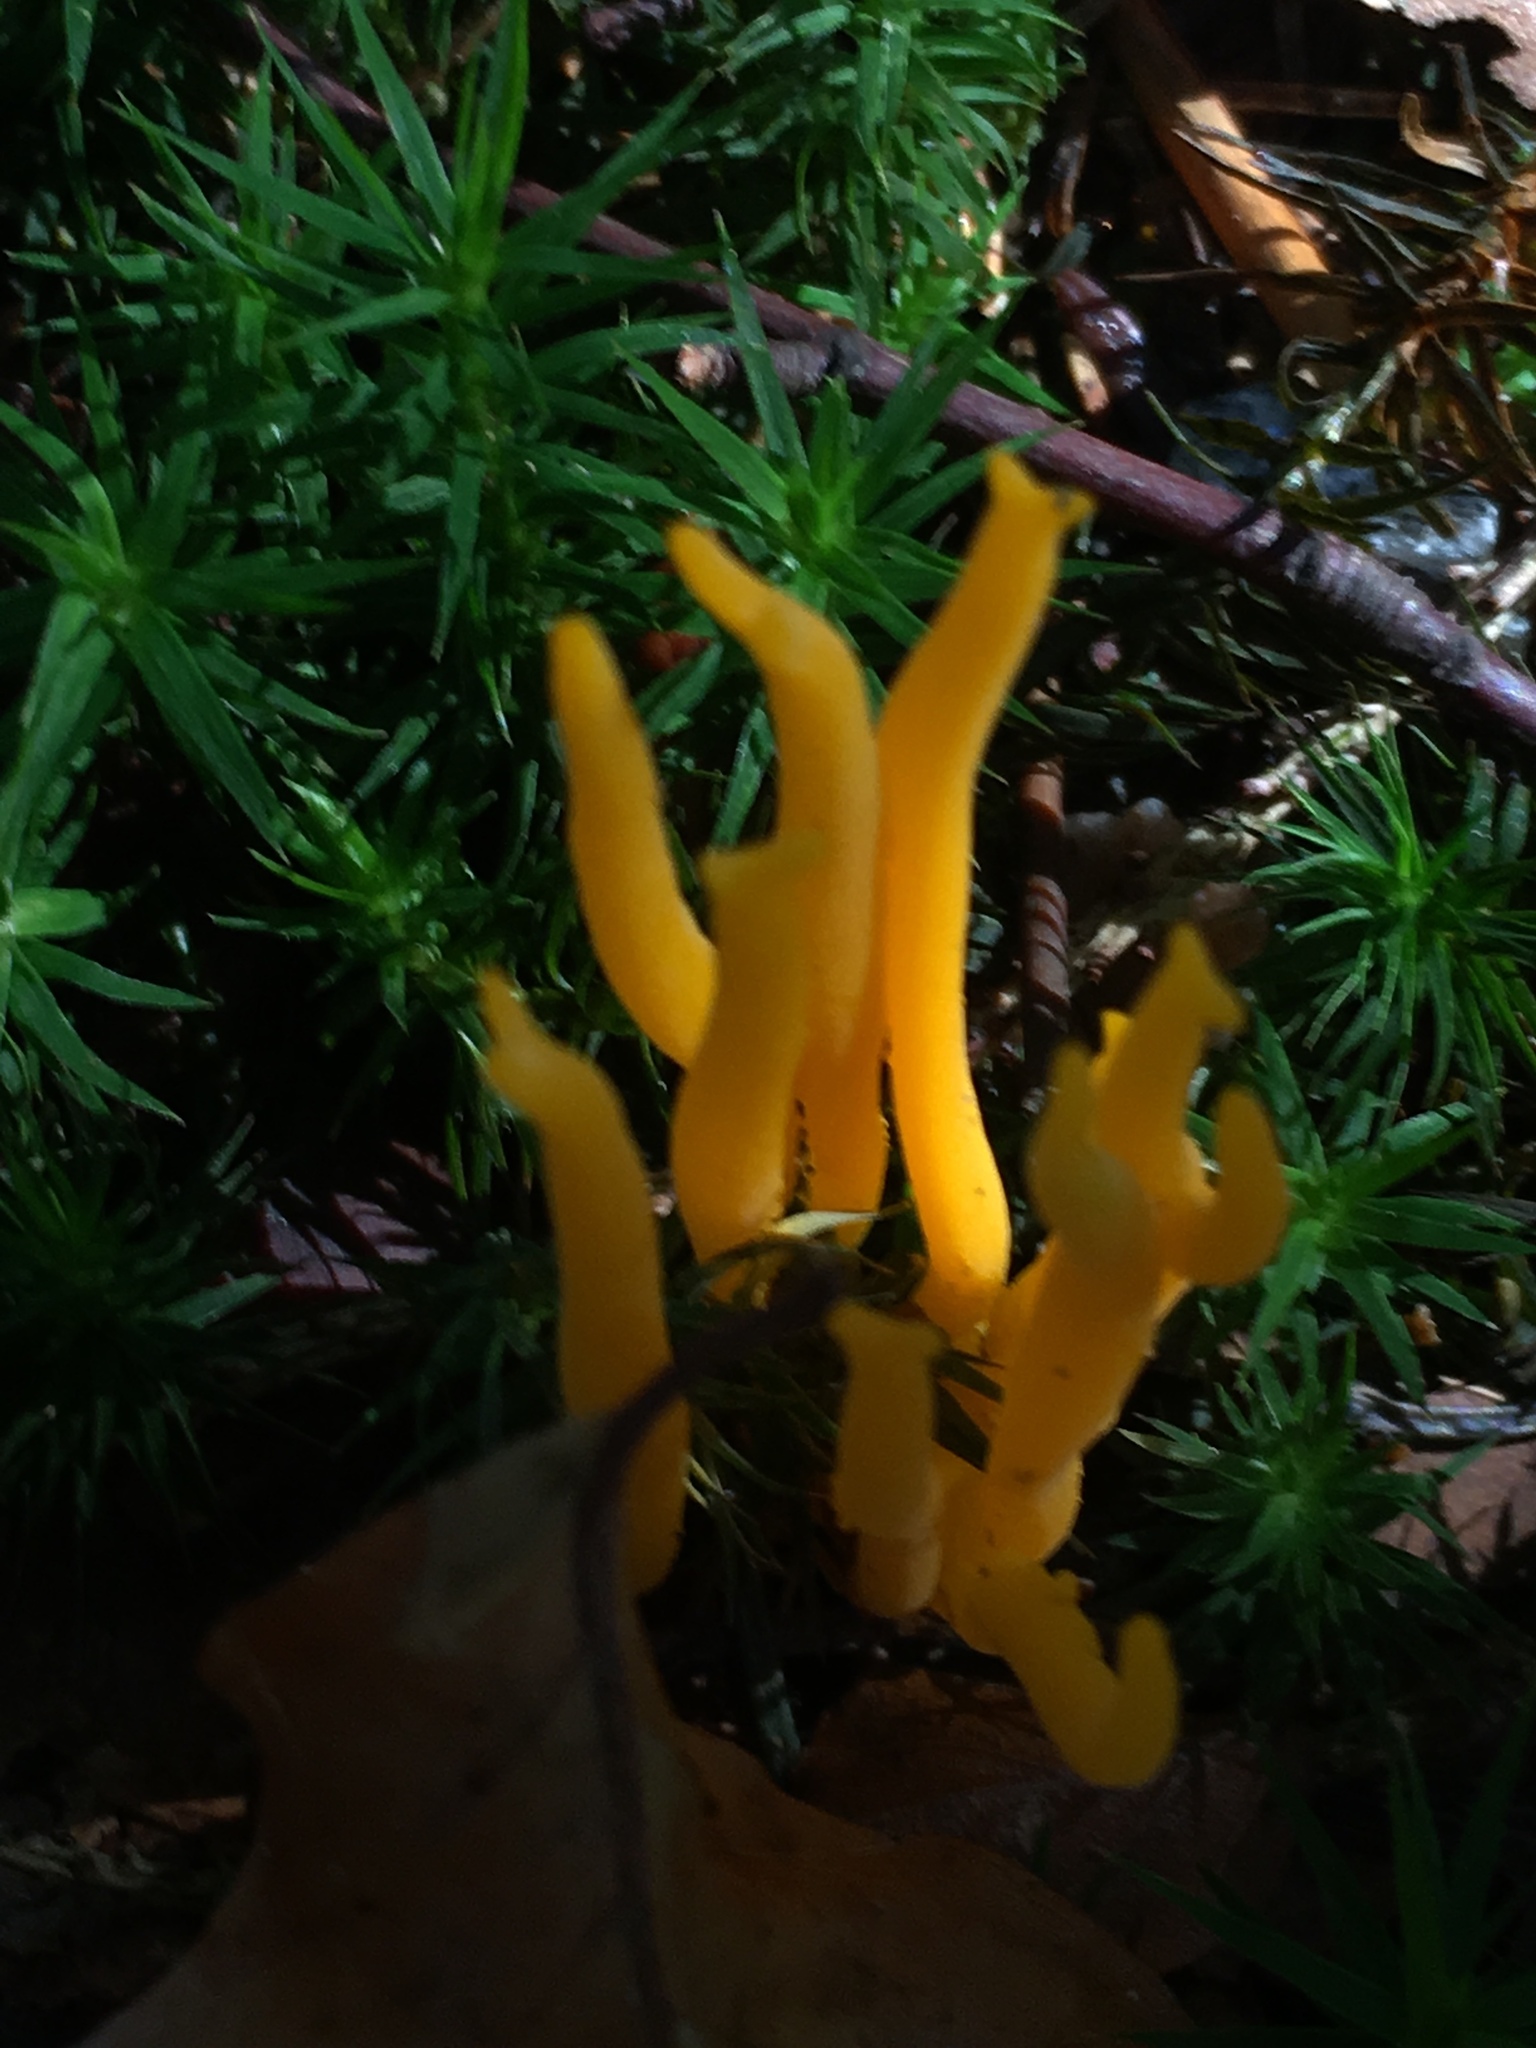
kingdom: Fungi
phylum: Basidiomycota
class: Dacrymycetes
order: Dacrymycetales
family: Dacrymycetaceae
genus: Calocera
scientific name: Calocera viscosa
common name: Yellow stagshorn
